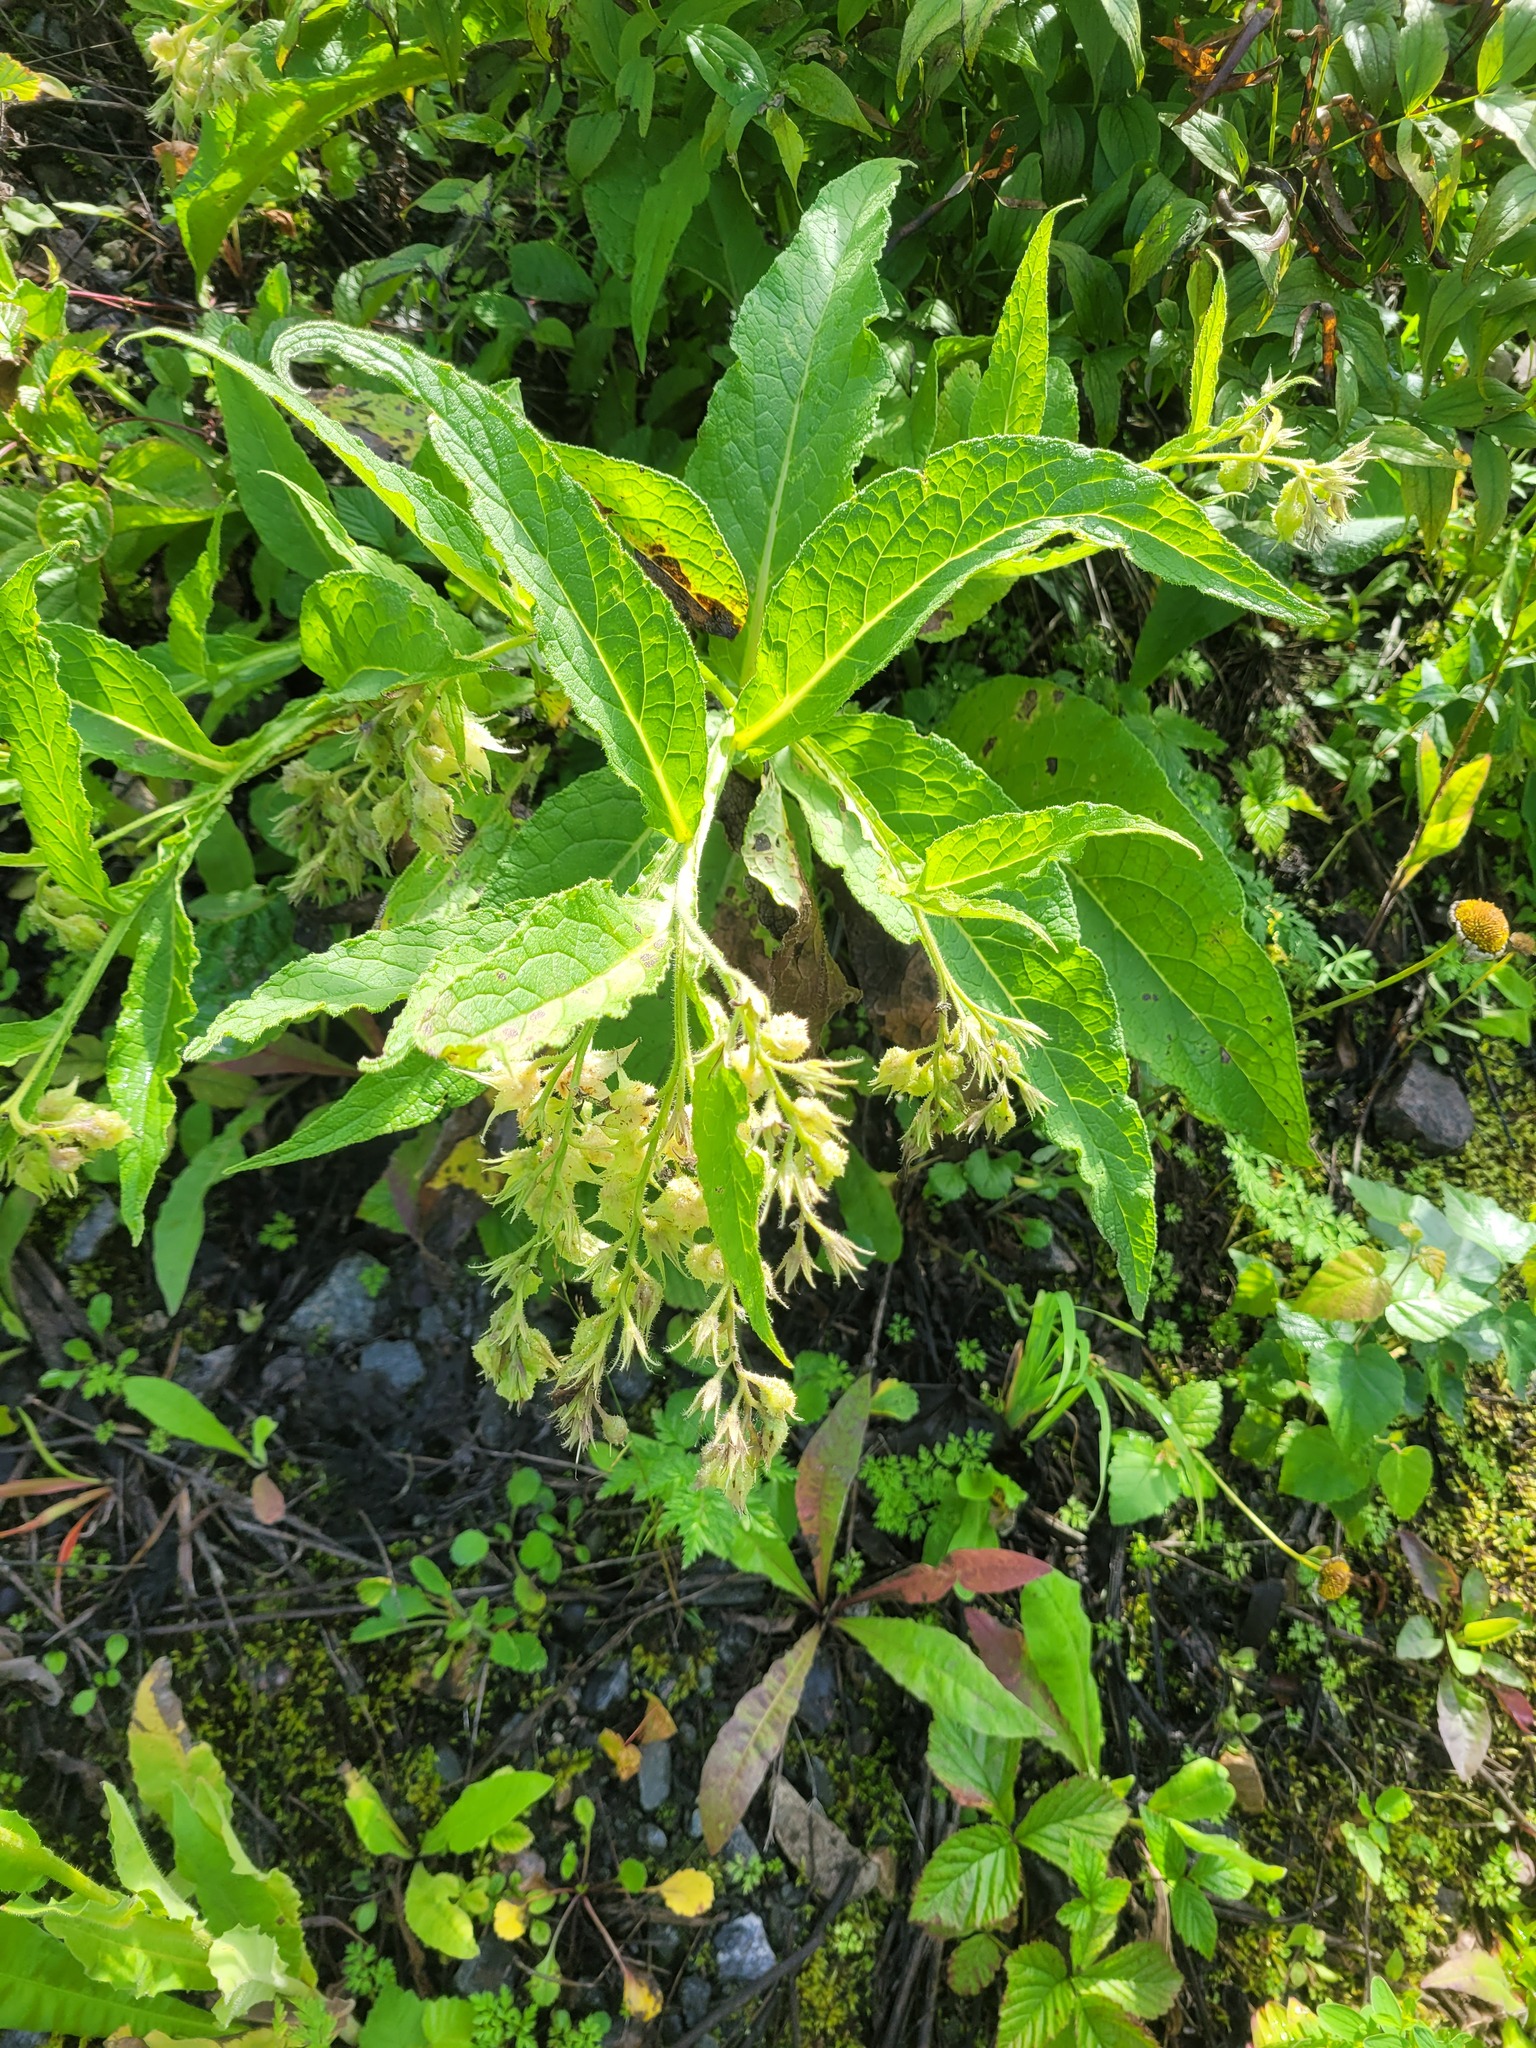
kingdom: Plantae
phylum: Tracheophyta
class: Magnoliopsida
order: Boraginales
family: Boraginaceae
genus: Symphytum
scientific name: Symphytum officinale
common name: Common comfrey
